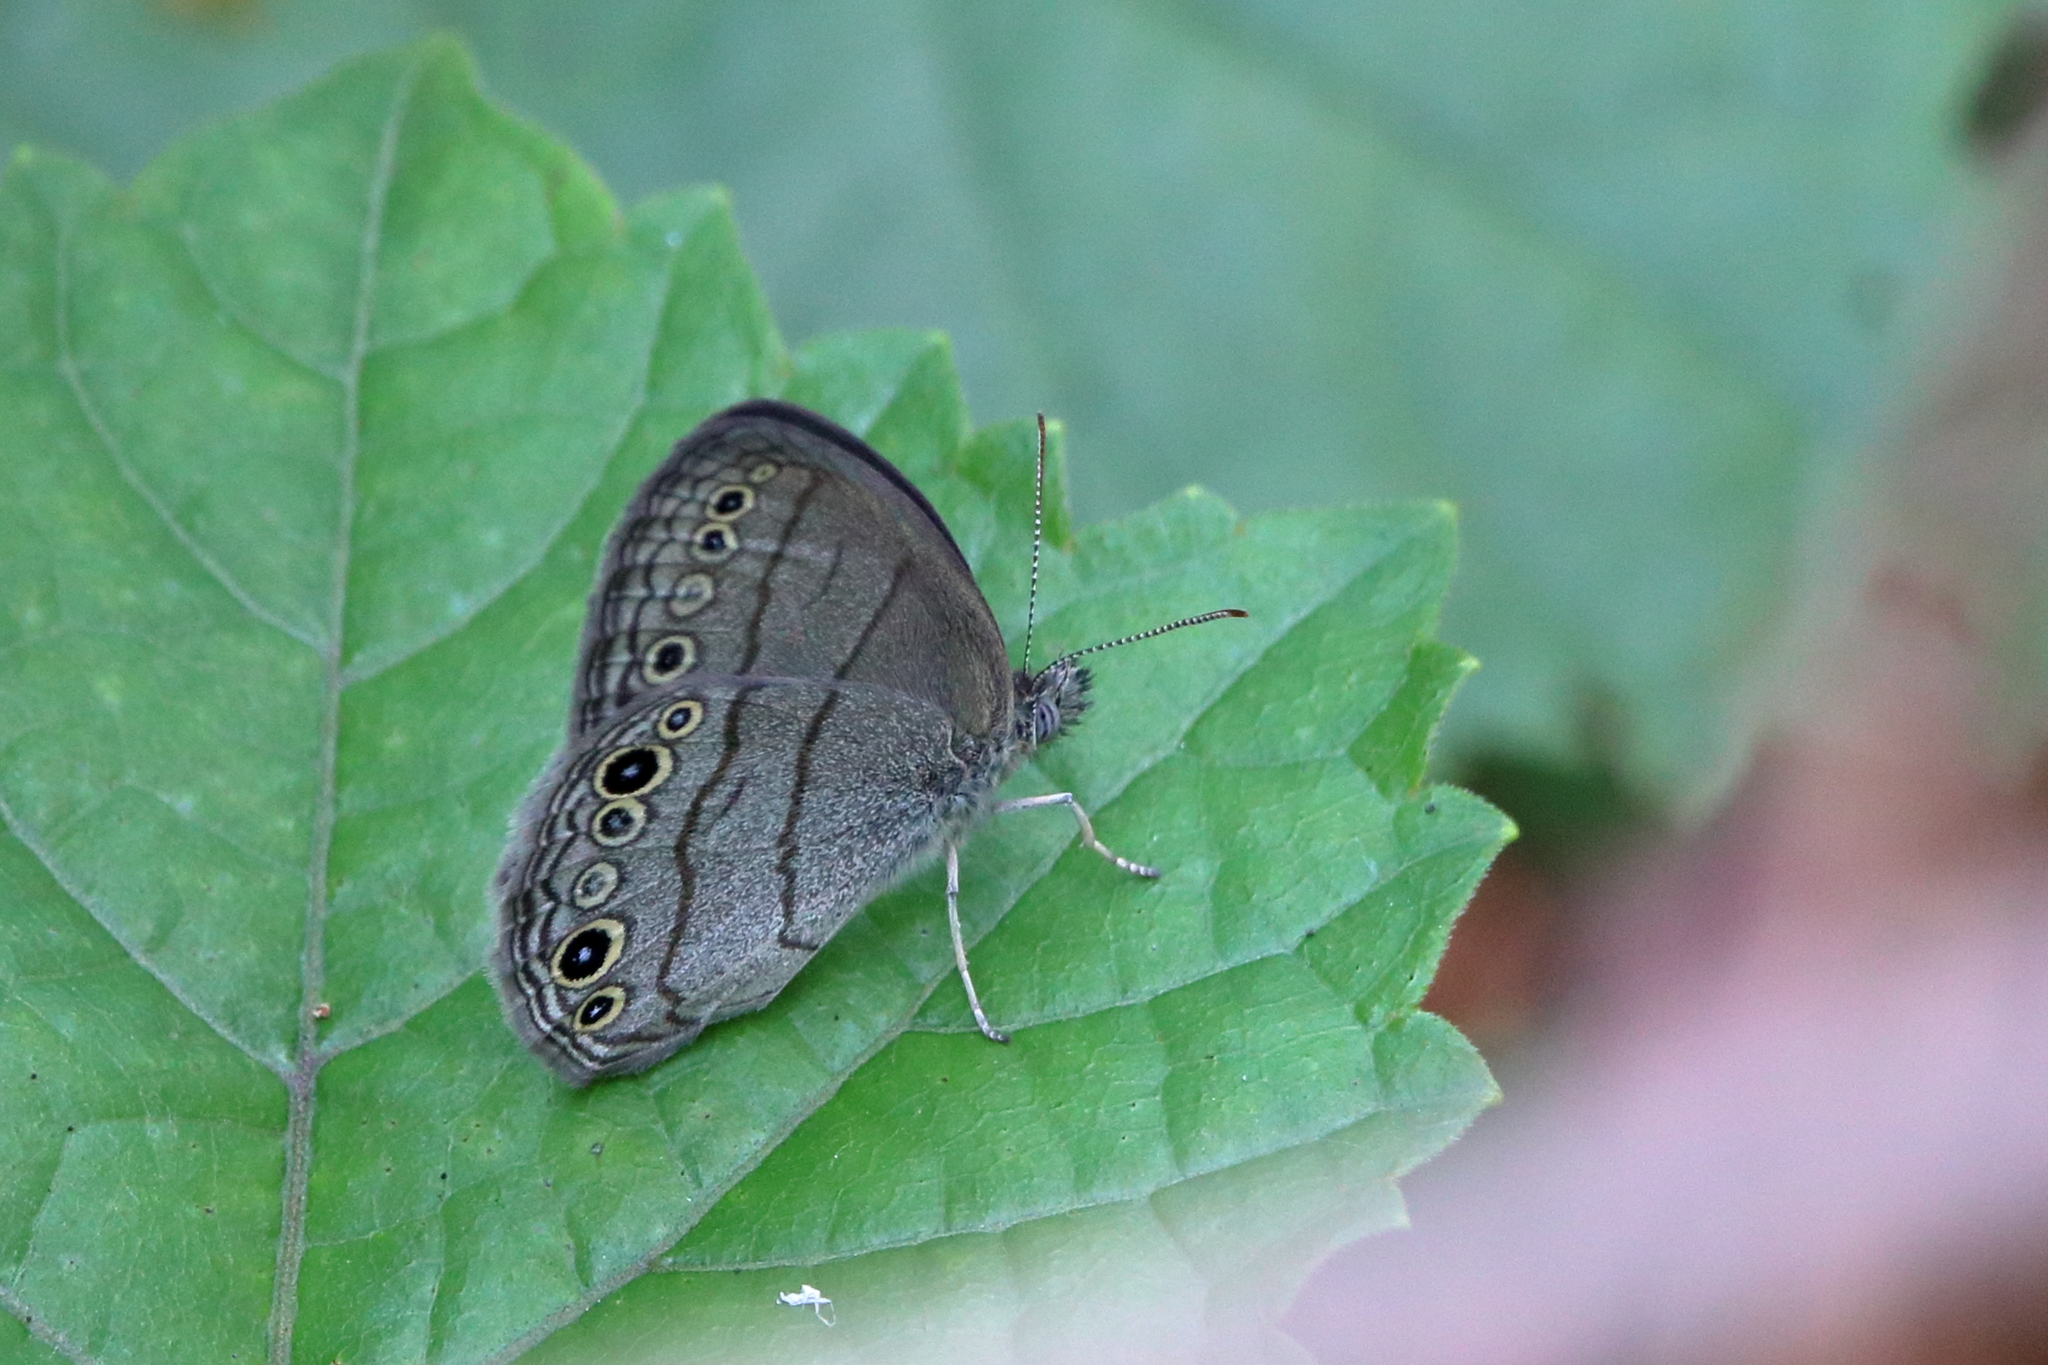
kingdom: Animalia
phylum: Arthropoda
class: Insecta
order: Lepidoptera
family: Nymphalidae
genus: Hermeuptychia
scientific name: Hermeuptychia hermes
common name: Hermes satyr
